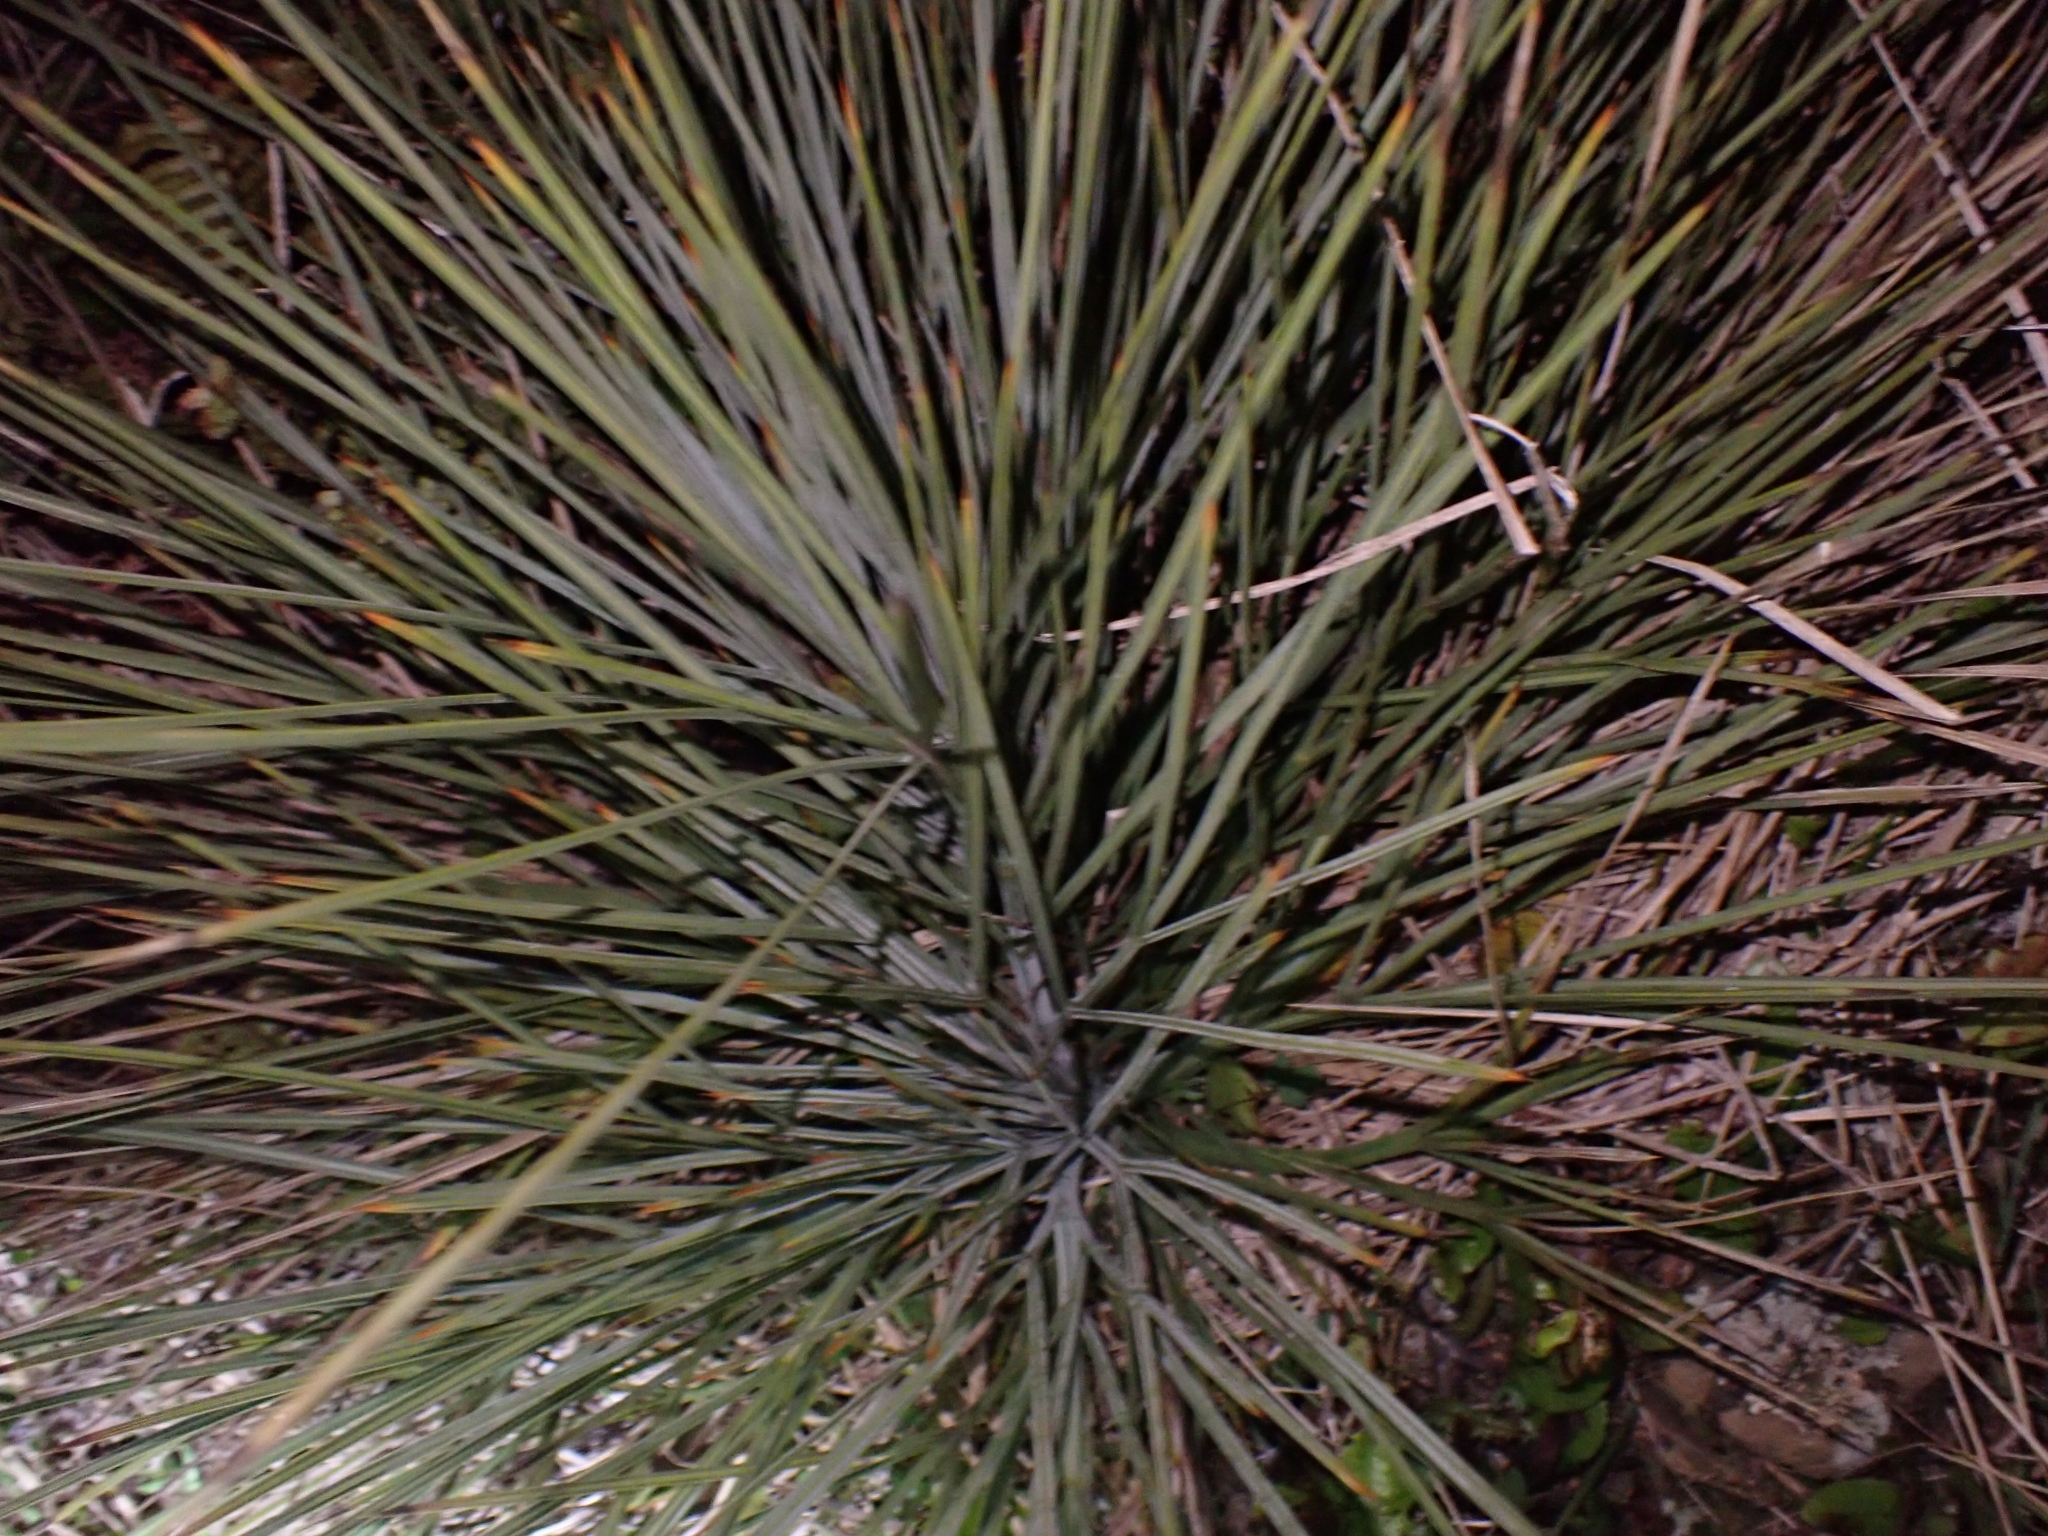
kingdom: Plantae
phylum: Tracheophyta
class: Magnoliopsida
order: Apiales
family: Apiaceae
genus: Aciphylla
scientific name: Aciphylla squarrosa
